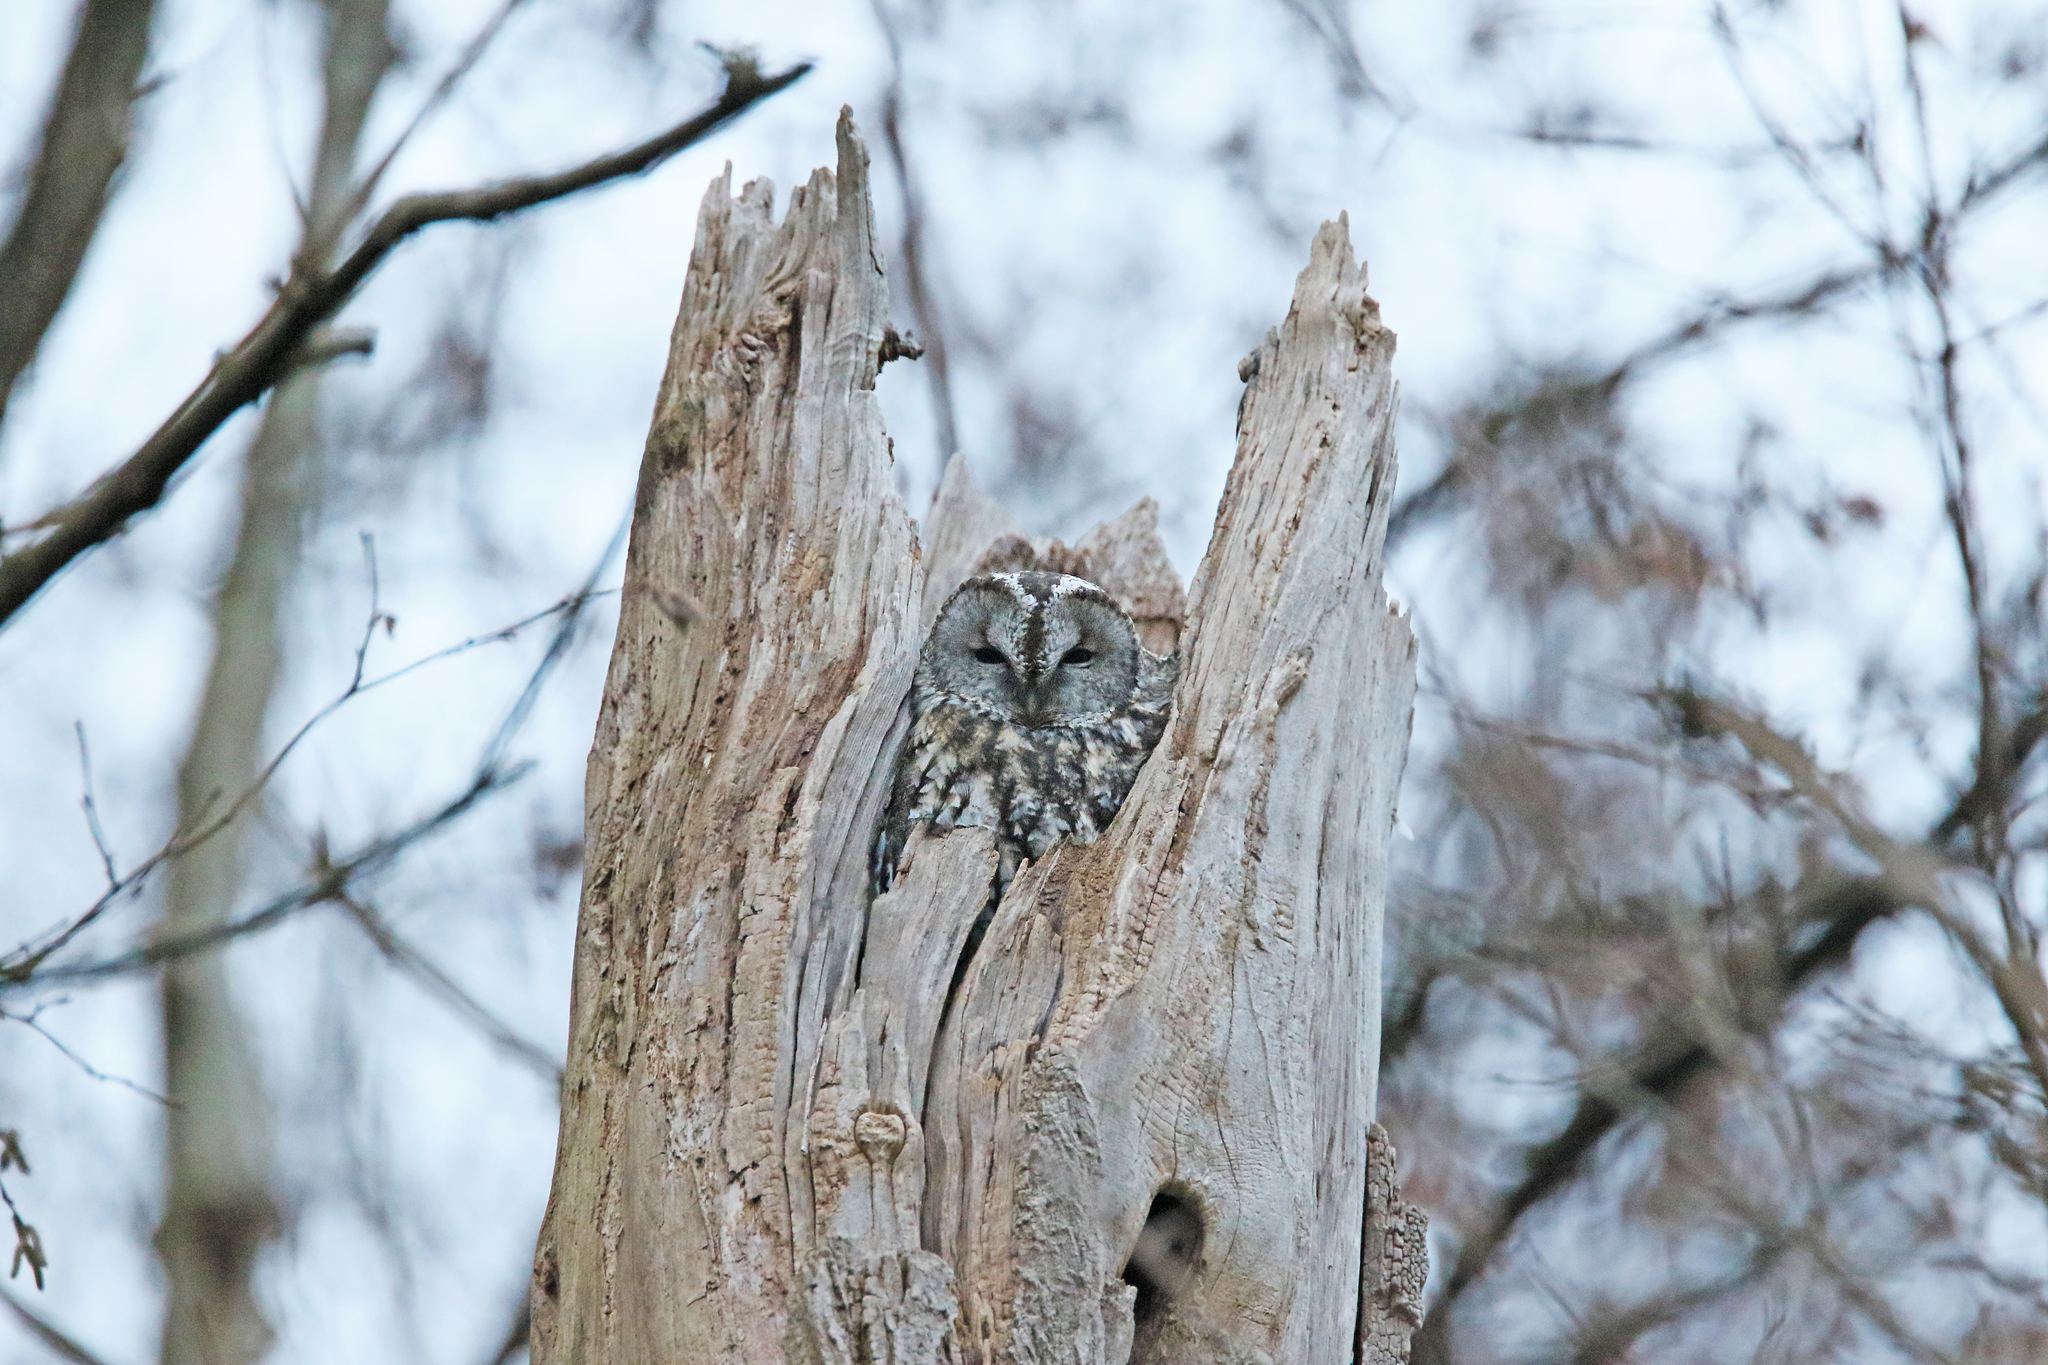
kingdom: Animalia
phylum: Chordata
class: Aves
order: Strigiformes
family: Strigidae
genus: Strix
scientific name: Strix aluco
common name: Tawny owl
